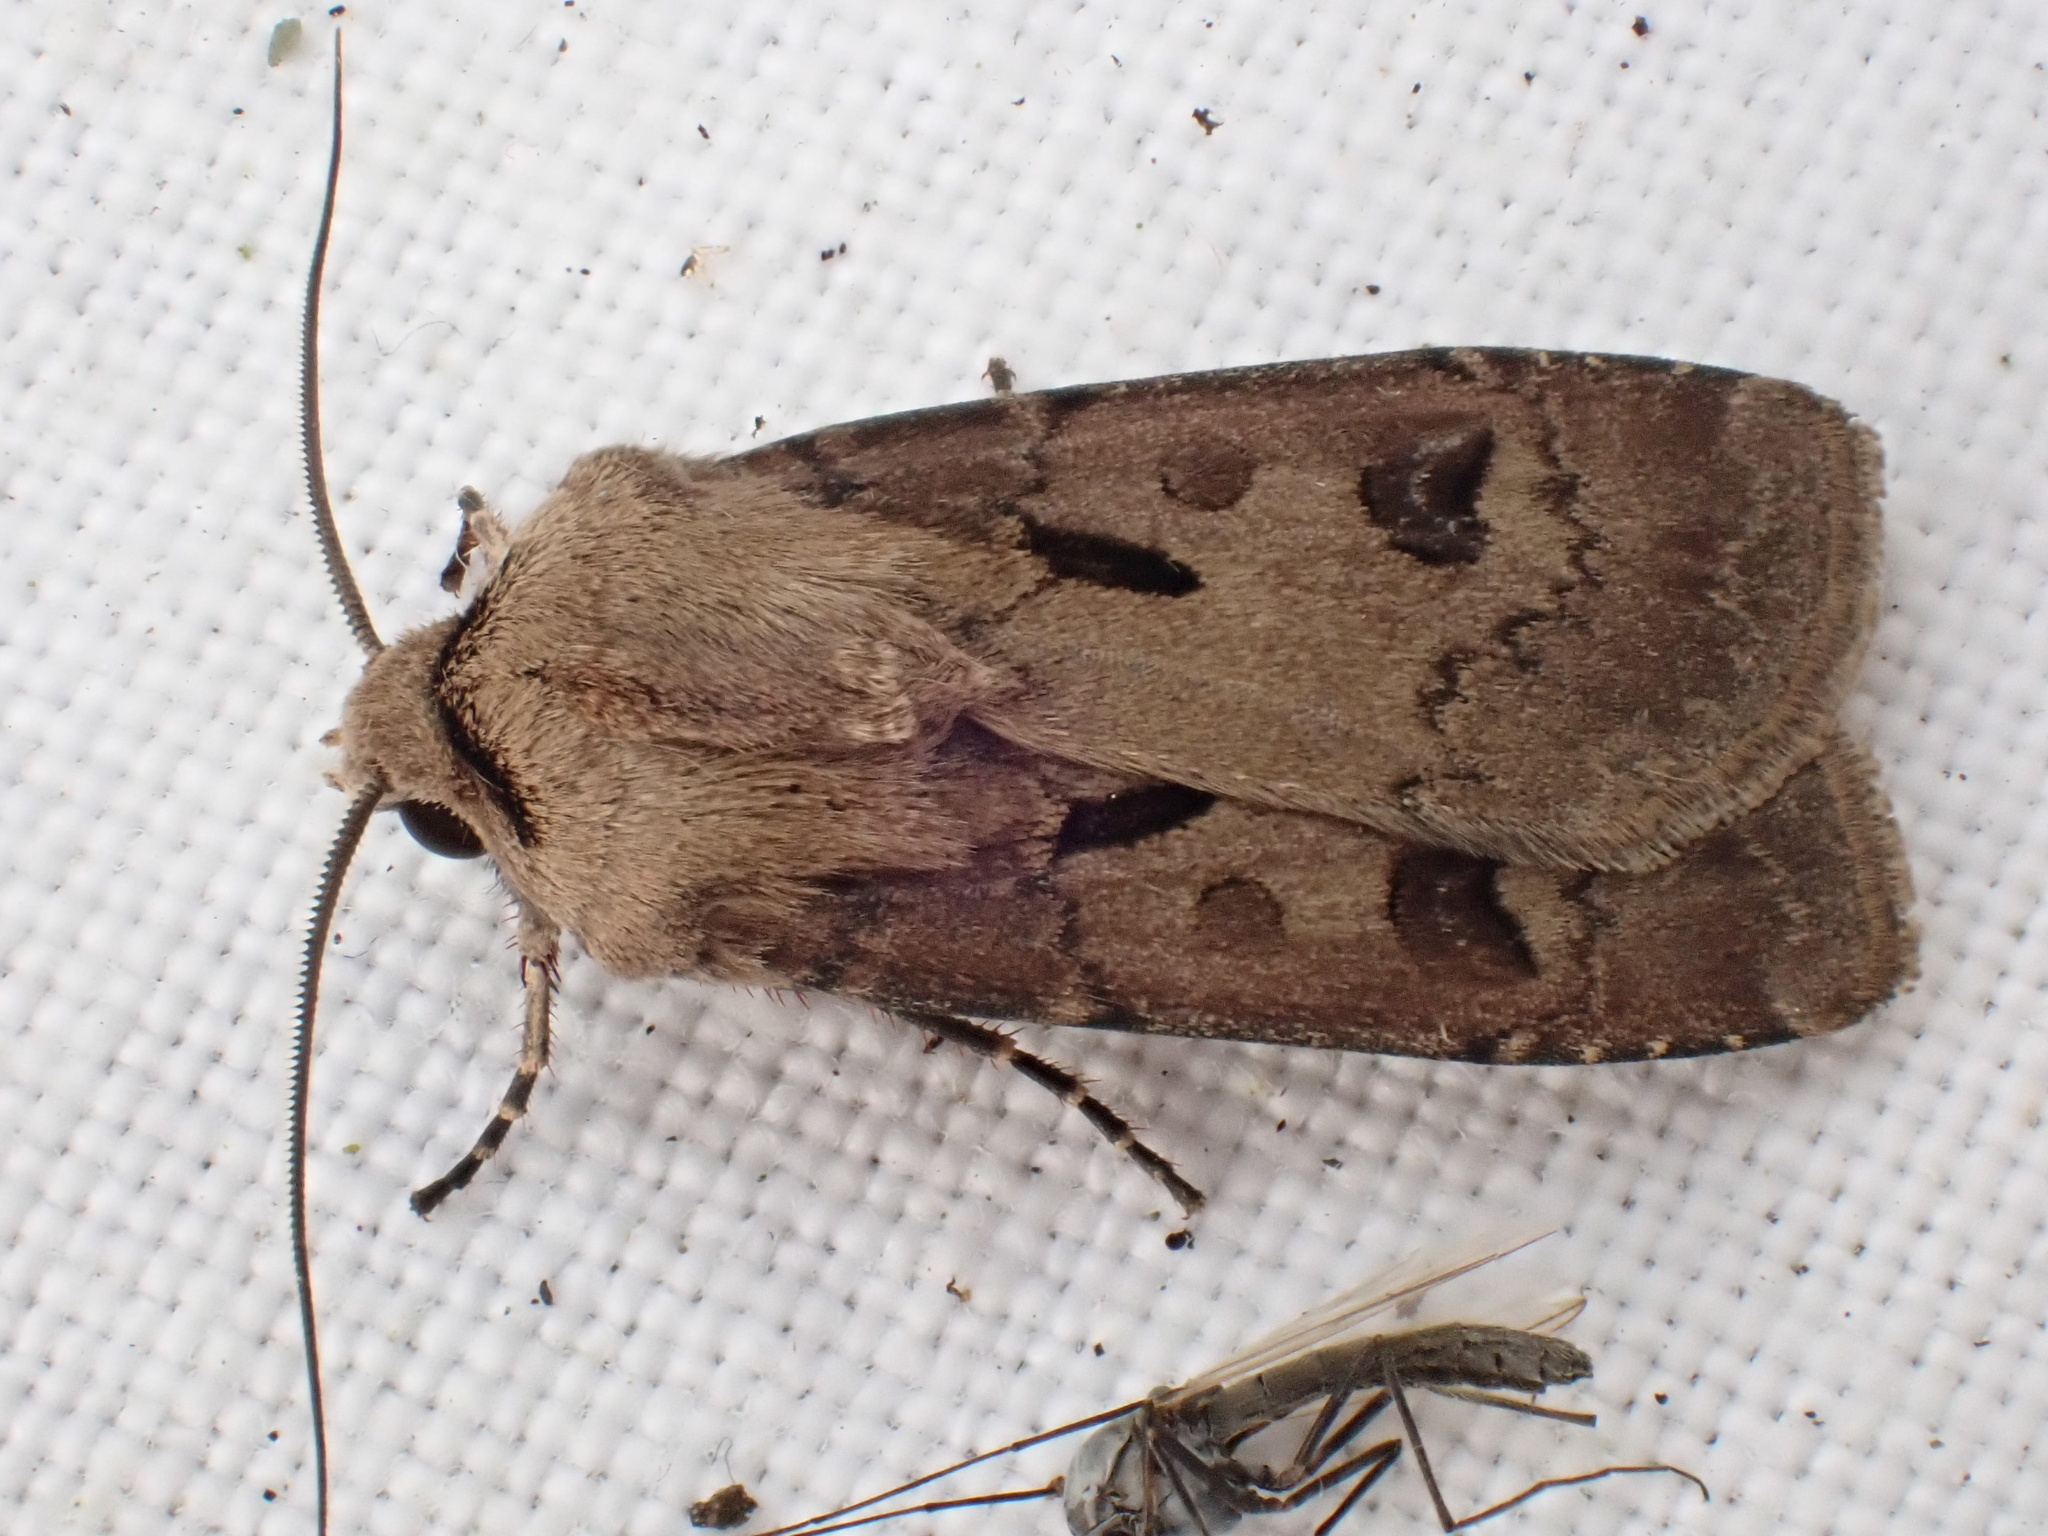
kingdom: Animalia
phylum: Arthropoda
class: Insecta
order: Lepidoptera
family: Noctuidae
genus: Agrotis
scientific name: Agrotis exclamationis
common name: Heart and dart
